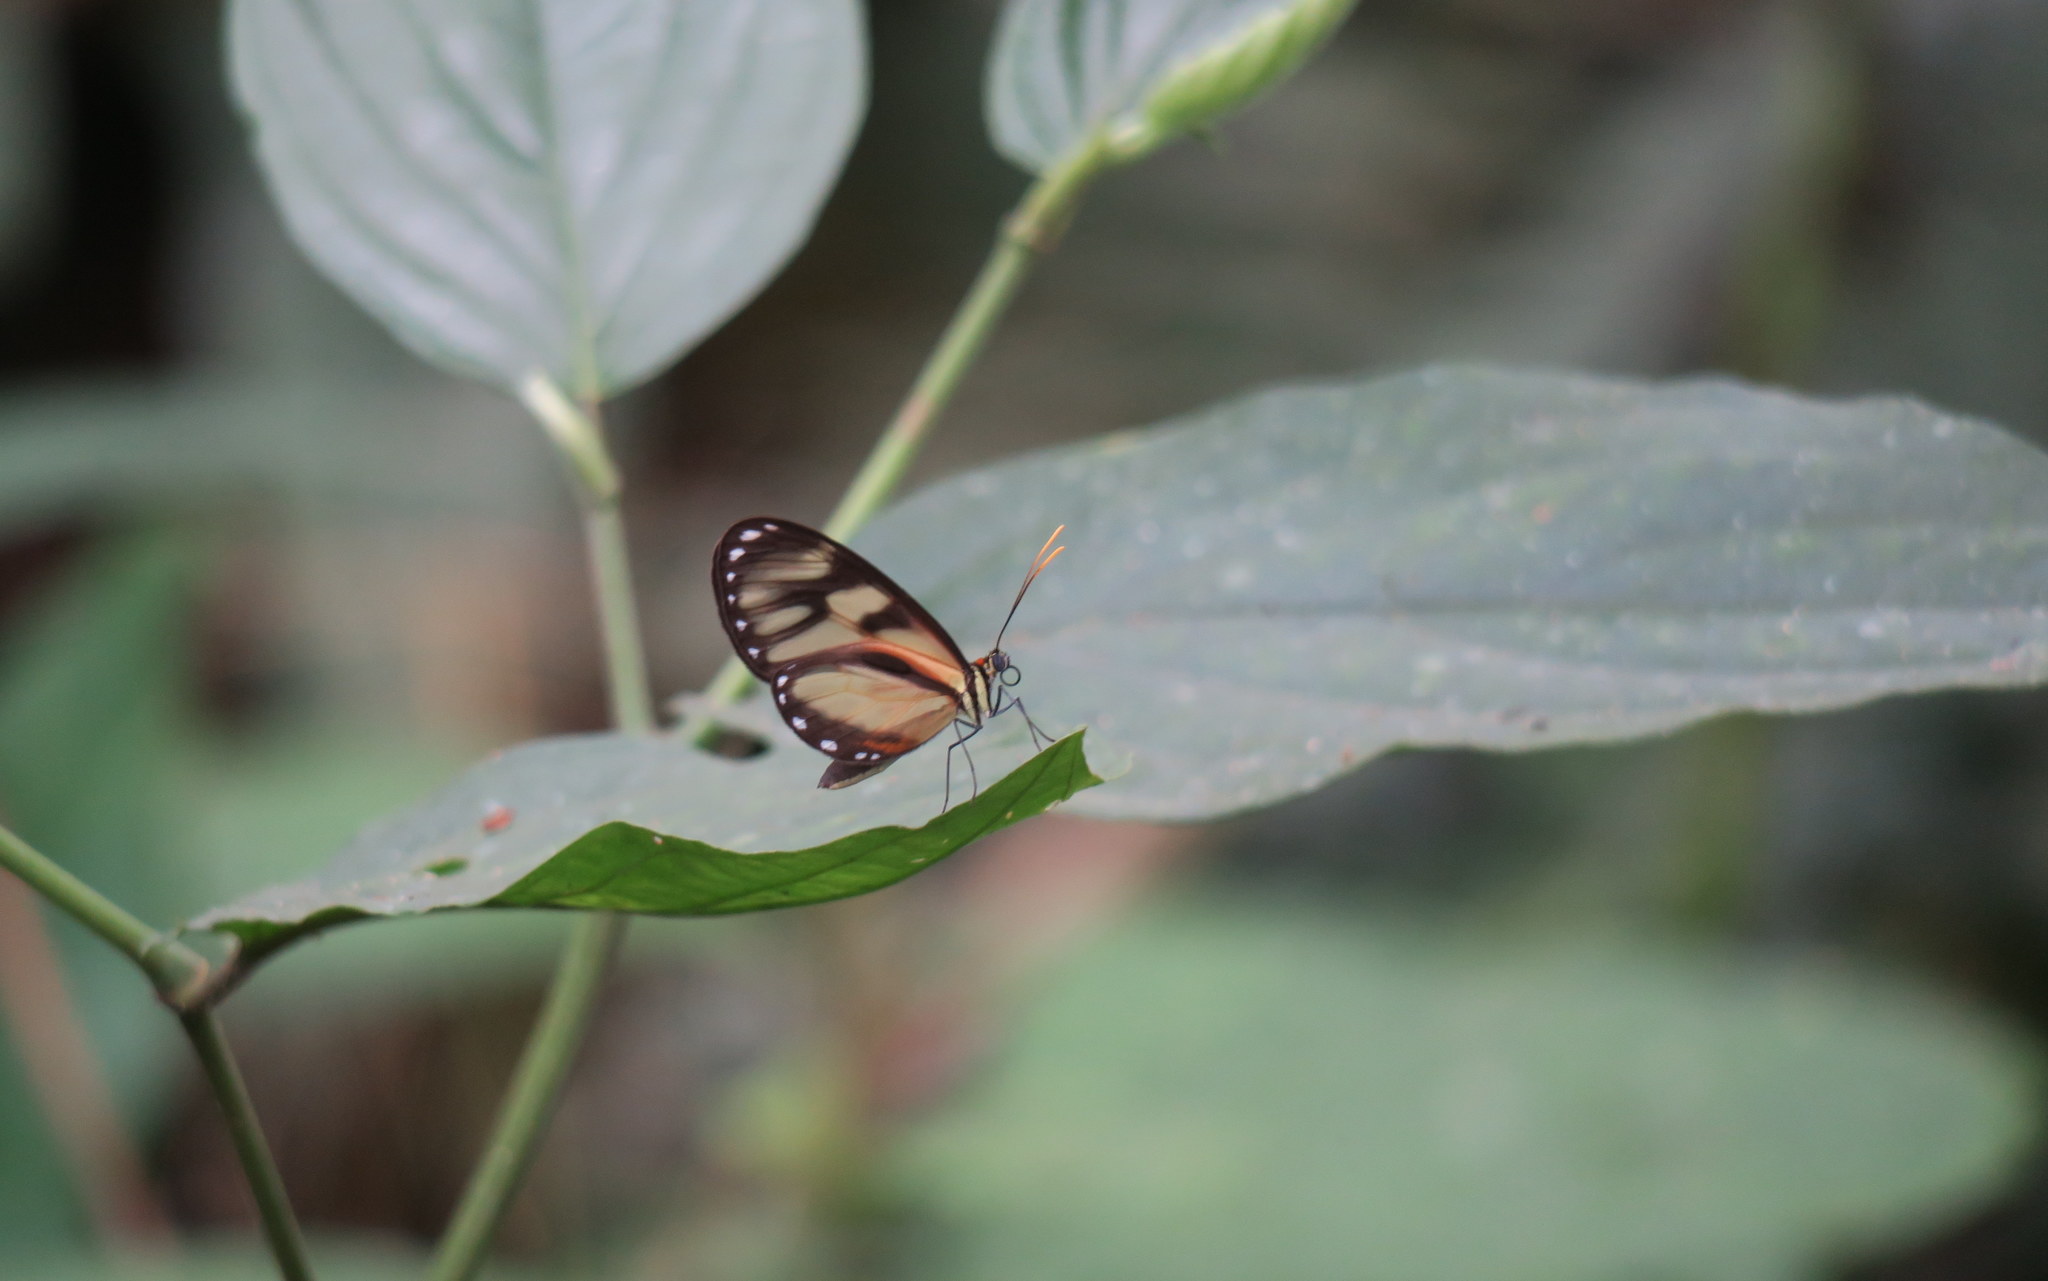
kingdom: Animalia
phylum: Arthropoda
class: Insecta
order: Lepidoptera
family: Nymphalidae
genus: Ithomia
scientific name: Ithomia iphianassa
